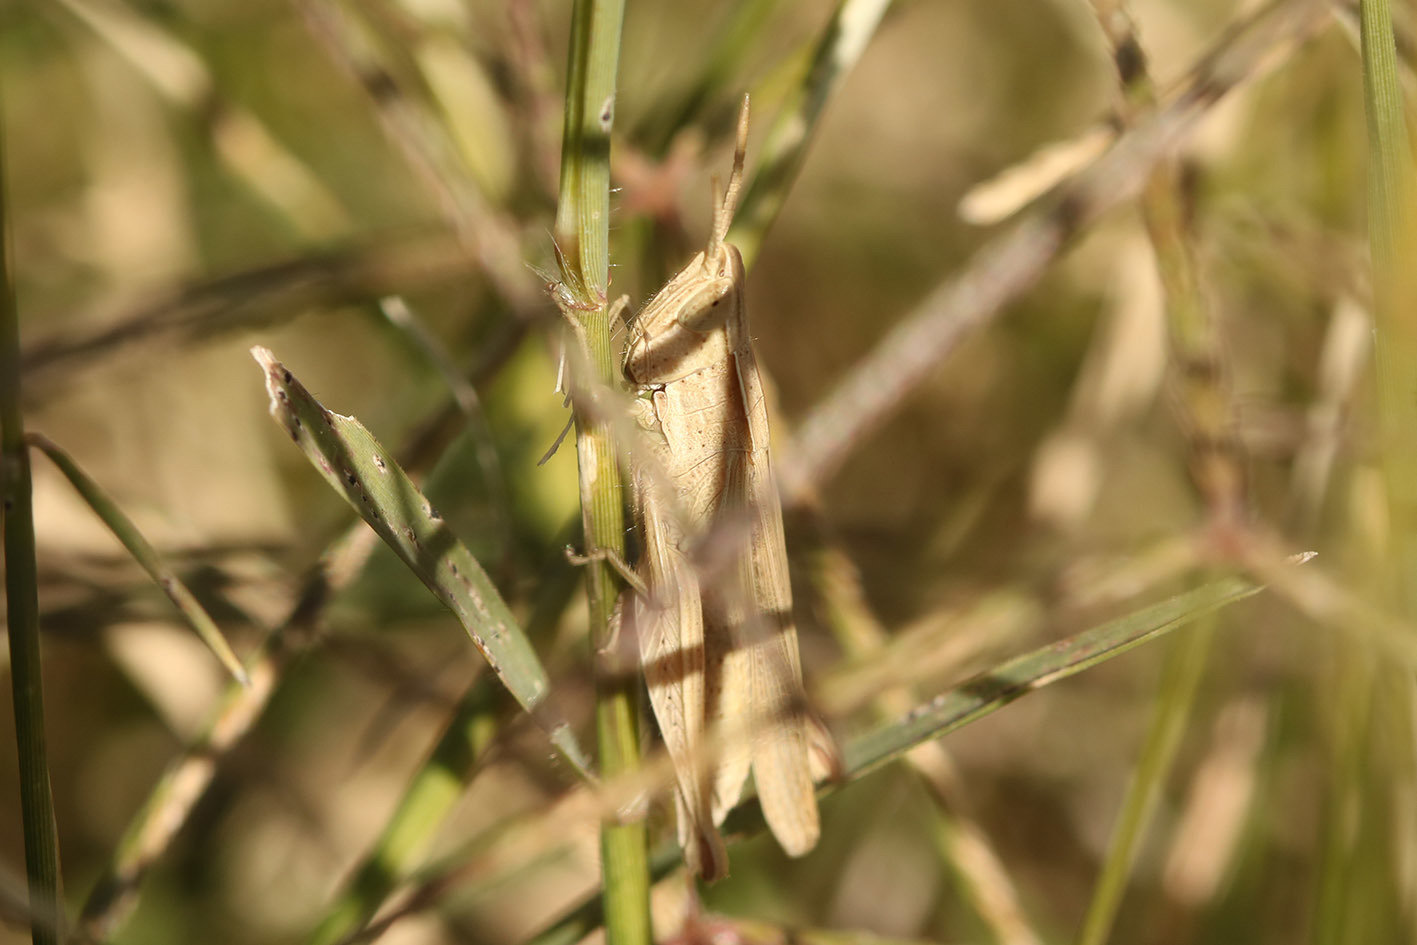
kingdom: Animalia
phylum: Arthropoda
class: Insecta
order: Orthoptera
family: Acrididae
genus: Laplatacris
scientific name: Laplatacris dispar
